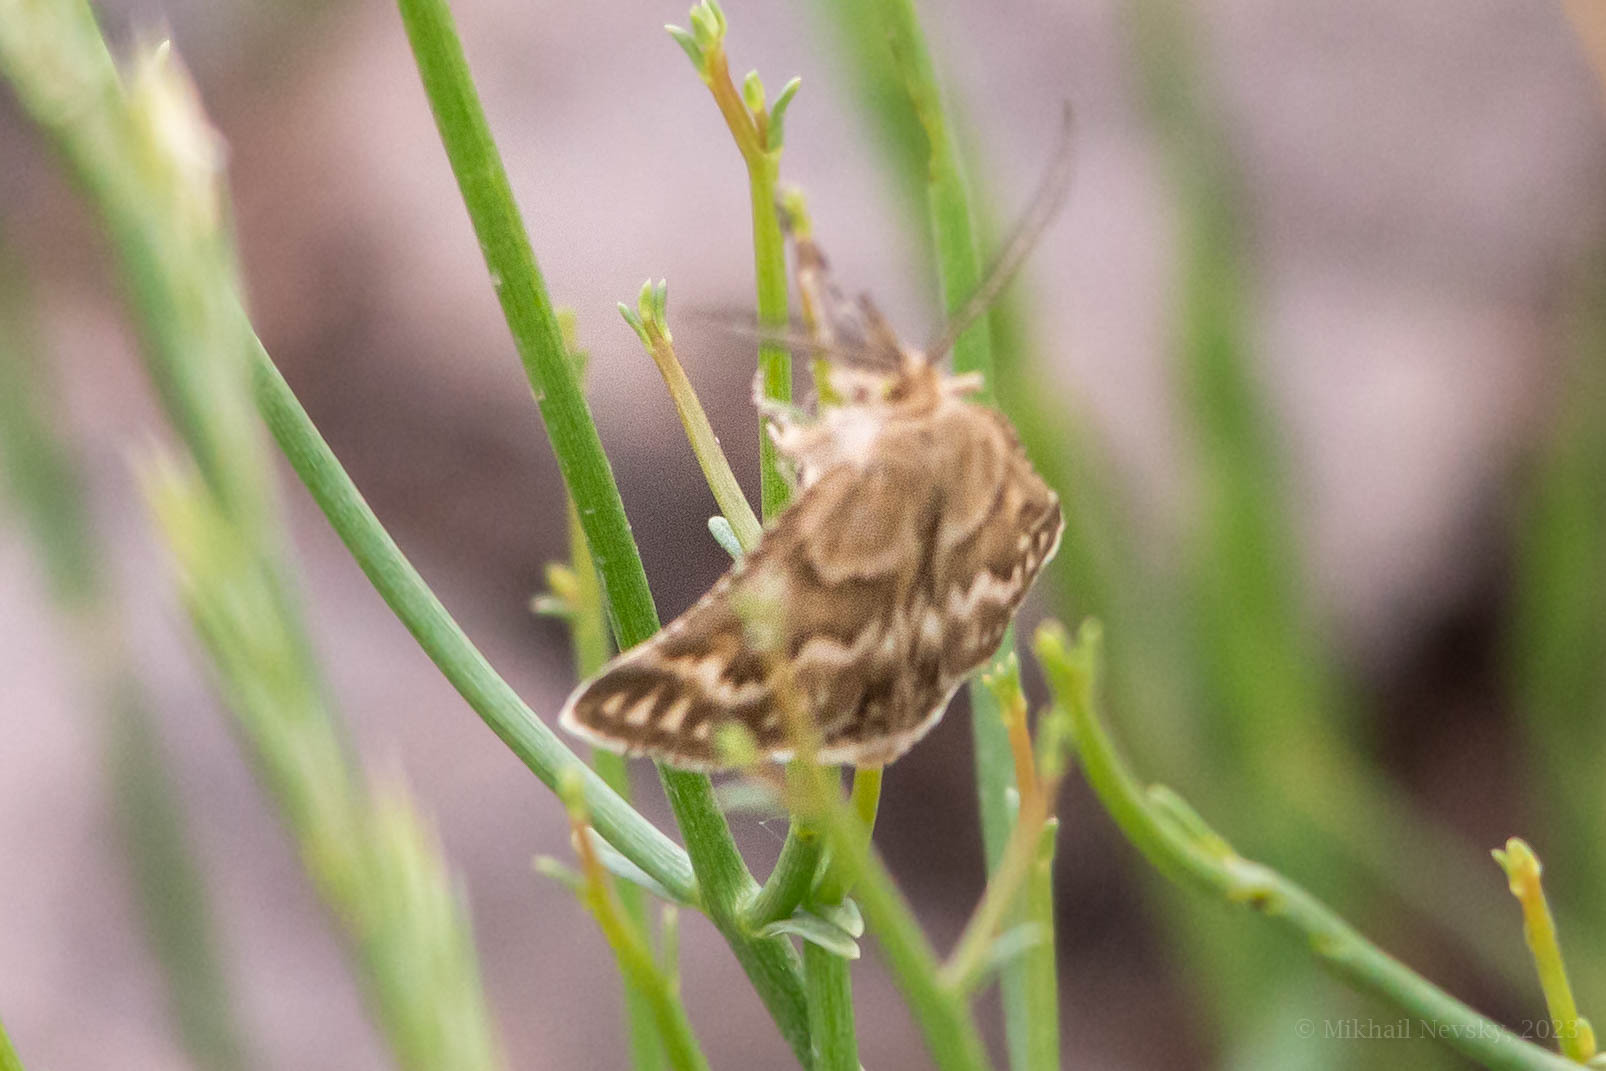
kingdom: Animalia
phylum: Arthropoda
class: Insecta
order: Lepidoptera
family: Pyralidae
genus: Synaphe
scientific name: Synaphe moldavica
